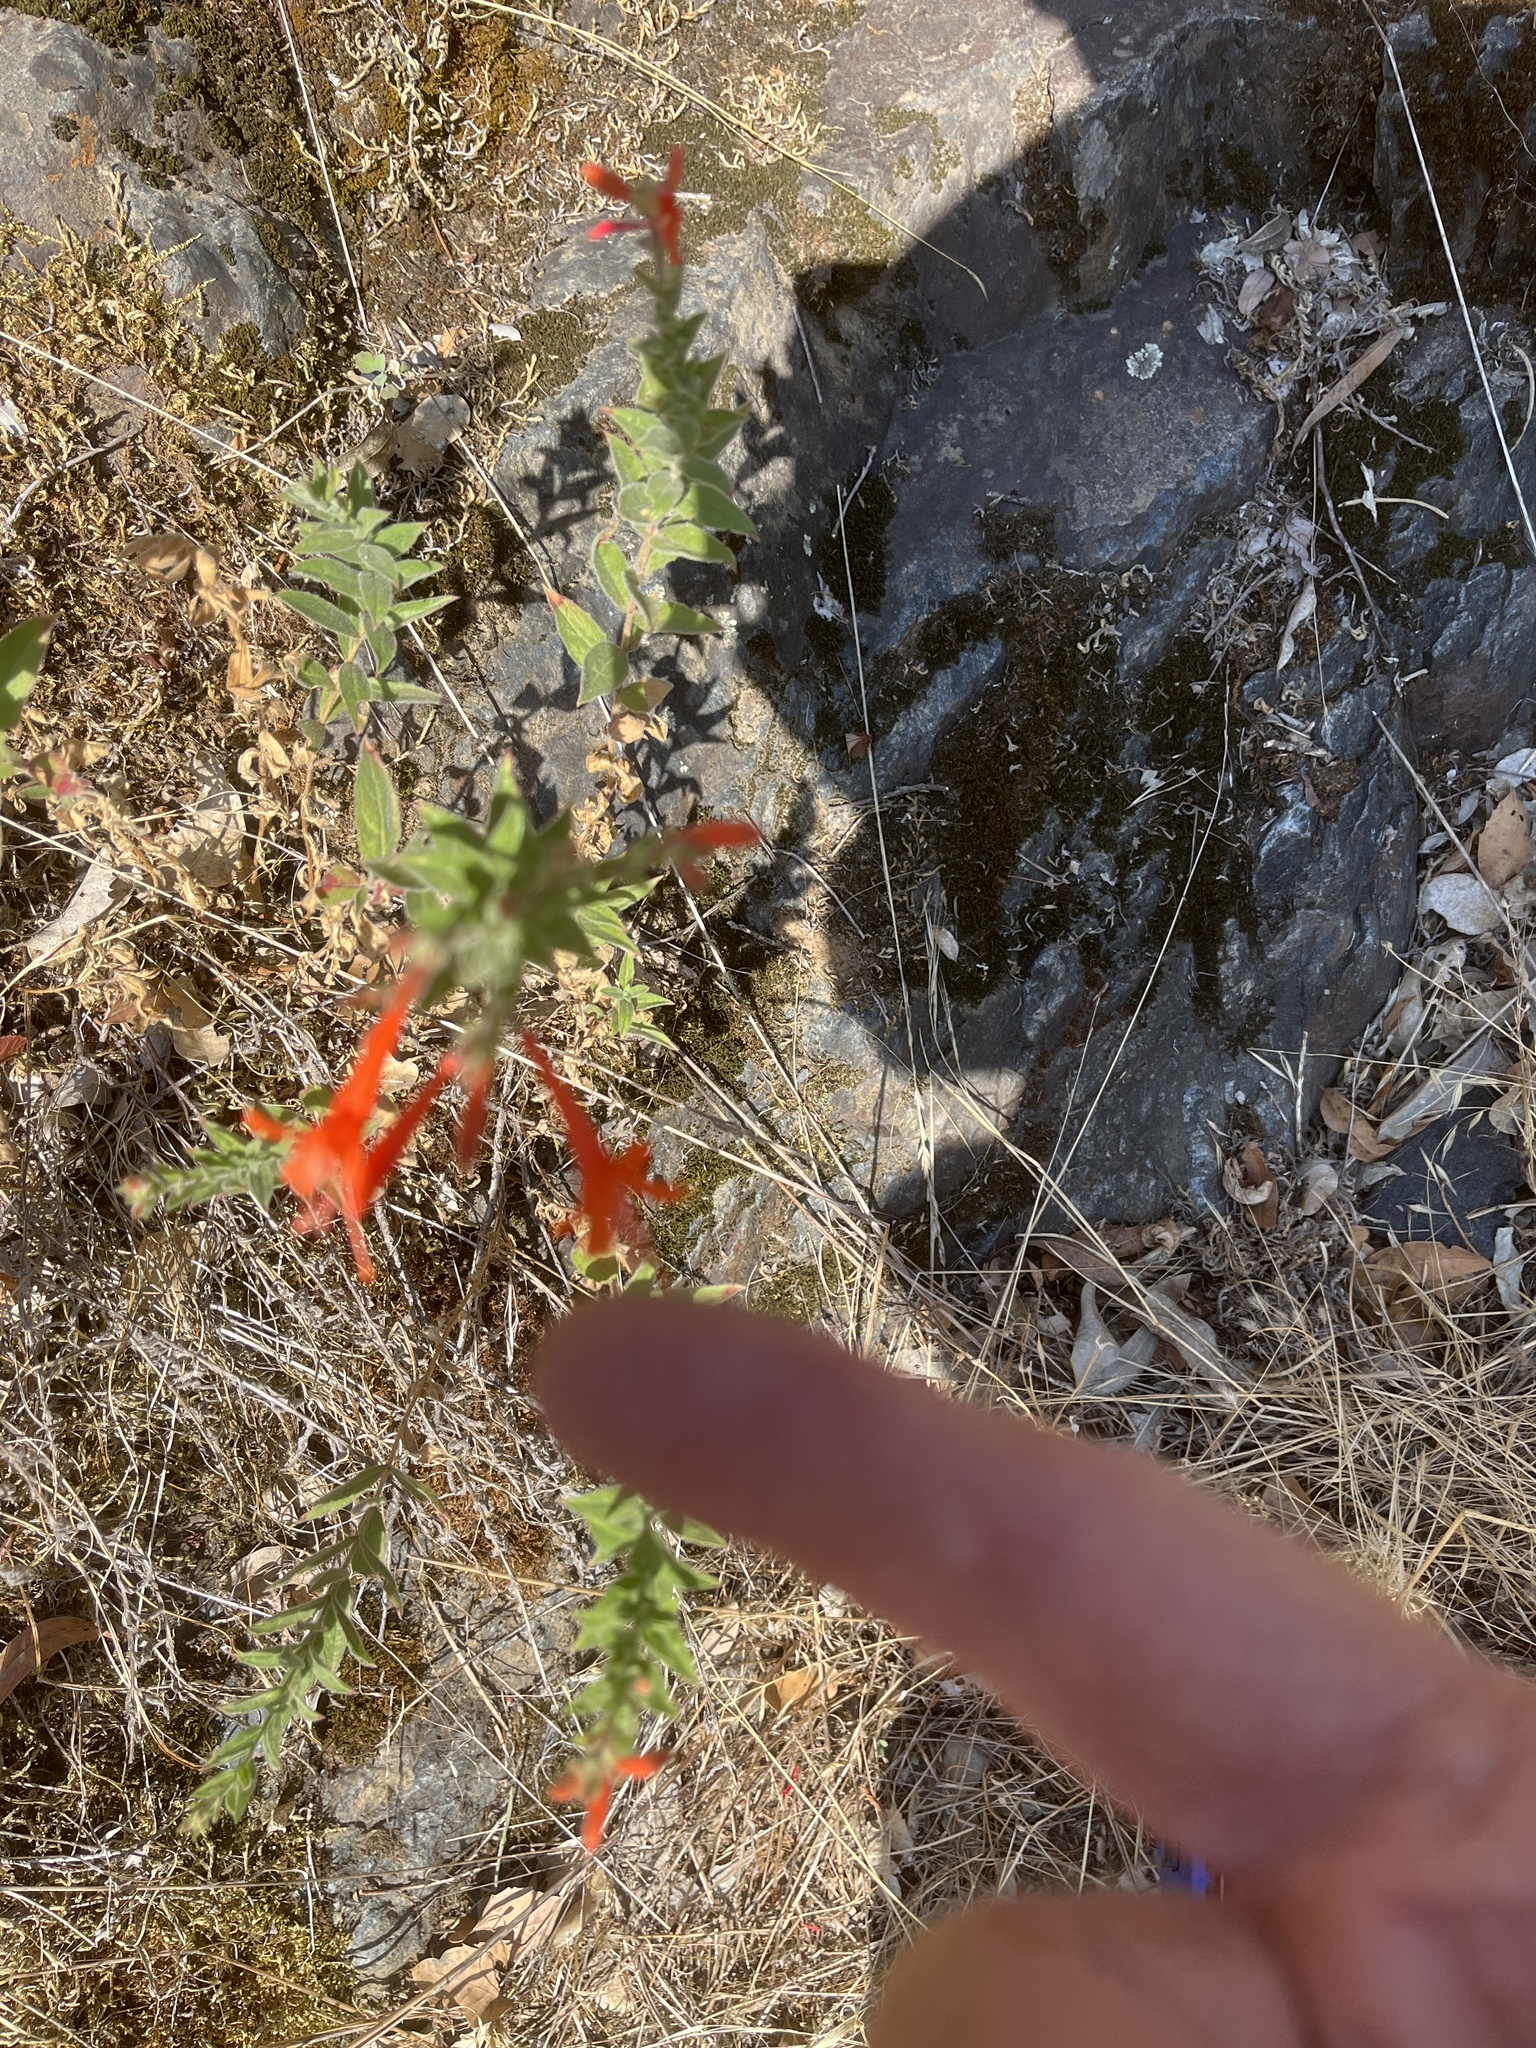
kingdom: Plantae
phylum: Tracheophyta
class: Magnoliopsida
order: Myrtales
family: Onagraceae
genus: Epilobium
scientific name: Epilobium canum
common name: California-fuchsia
